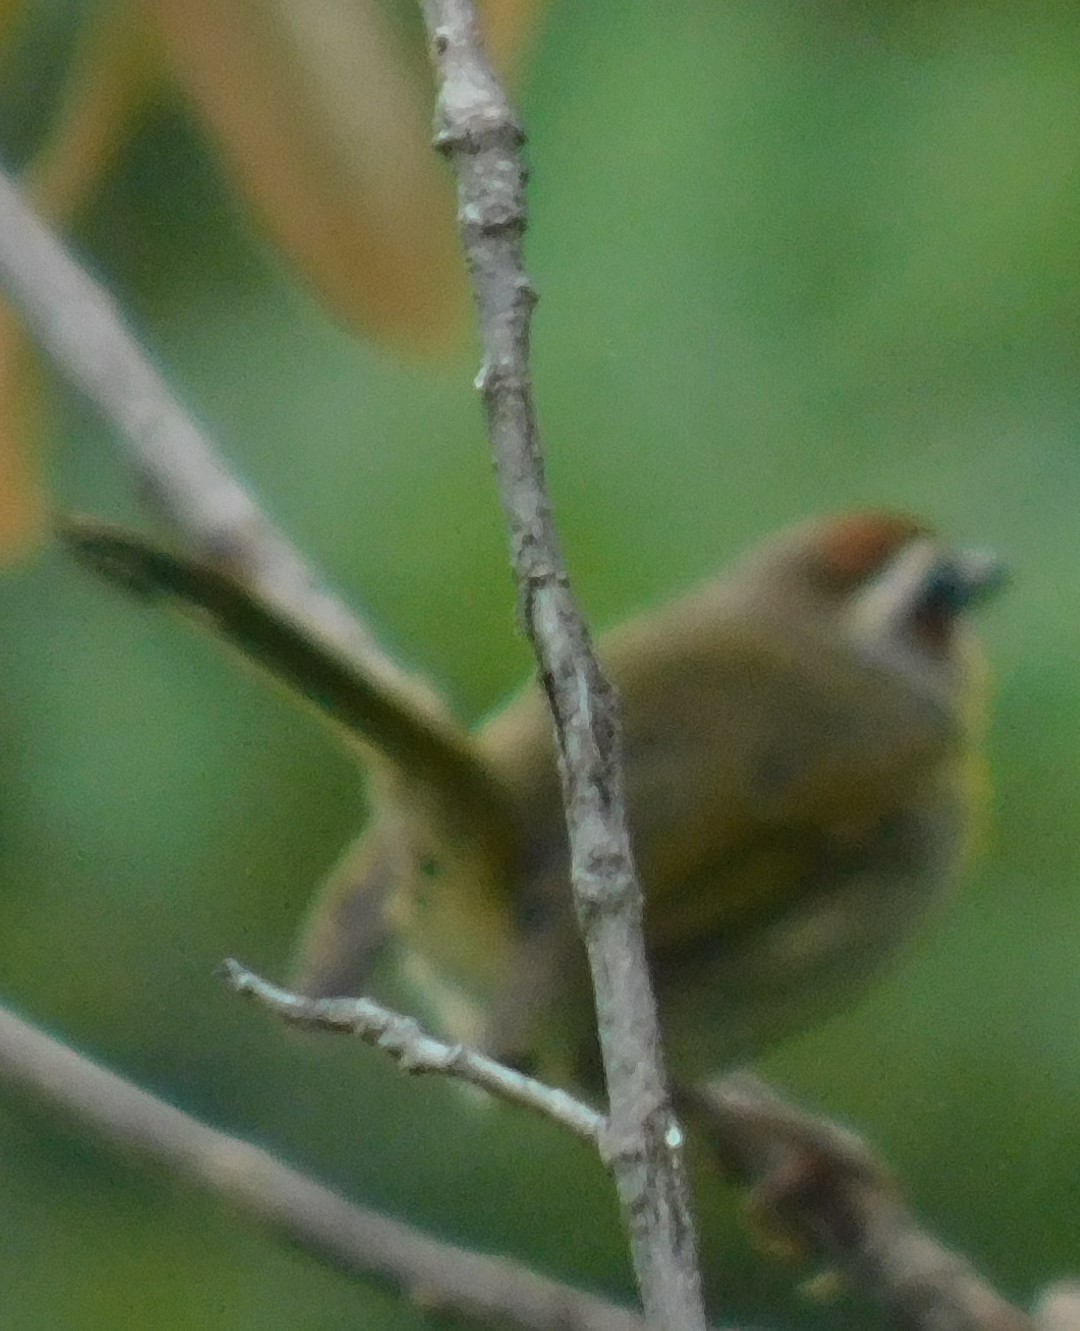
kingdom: Animalia
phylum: Chordata
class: Aves
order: Passeriformes
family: Parulidae
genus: Basileuterus
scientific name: Basileuterus rufifrons
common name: Rufous-capped warbler
